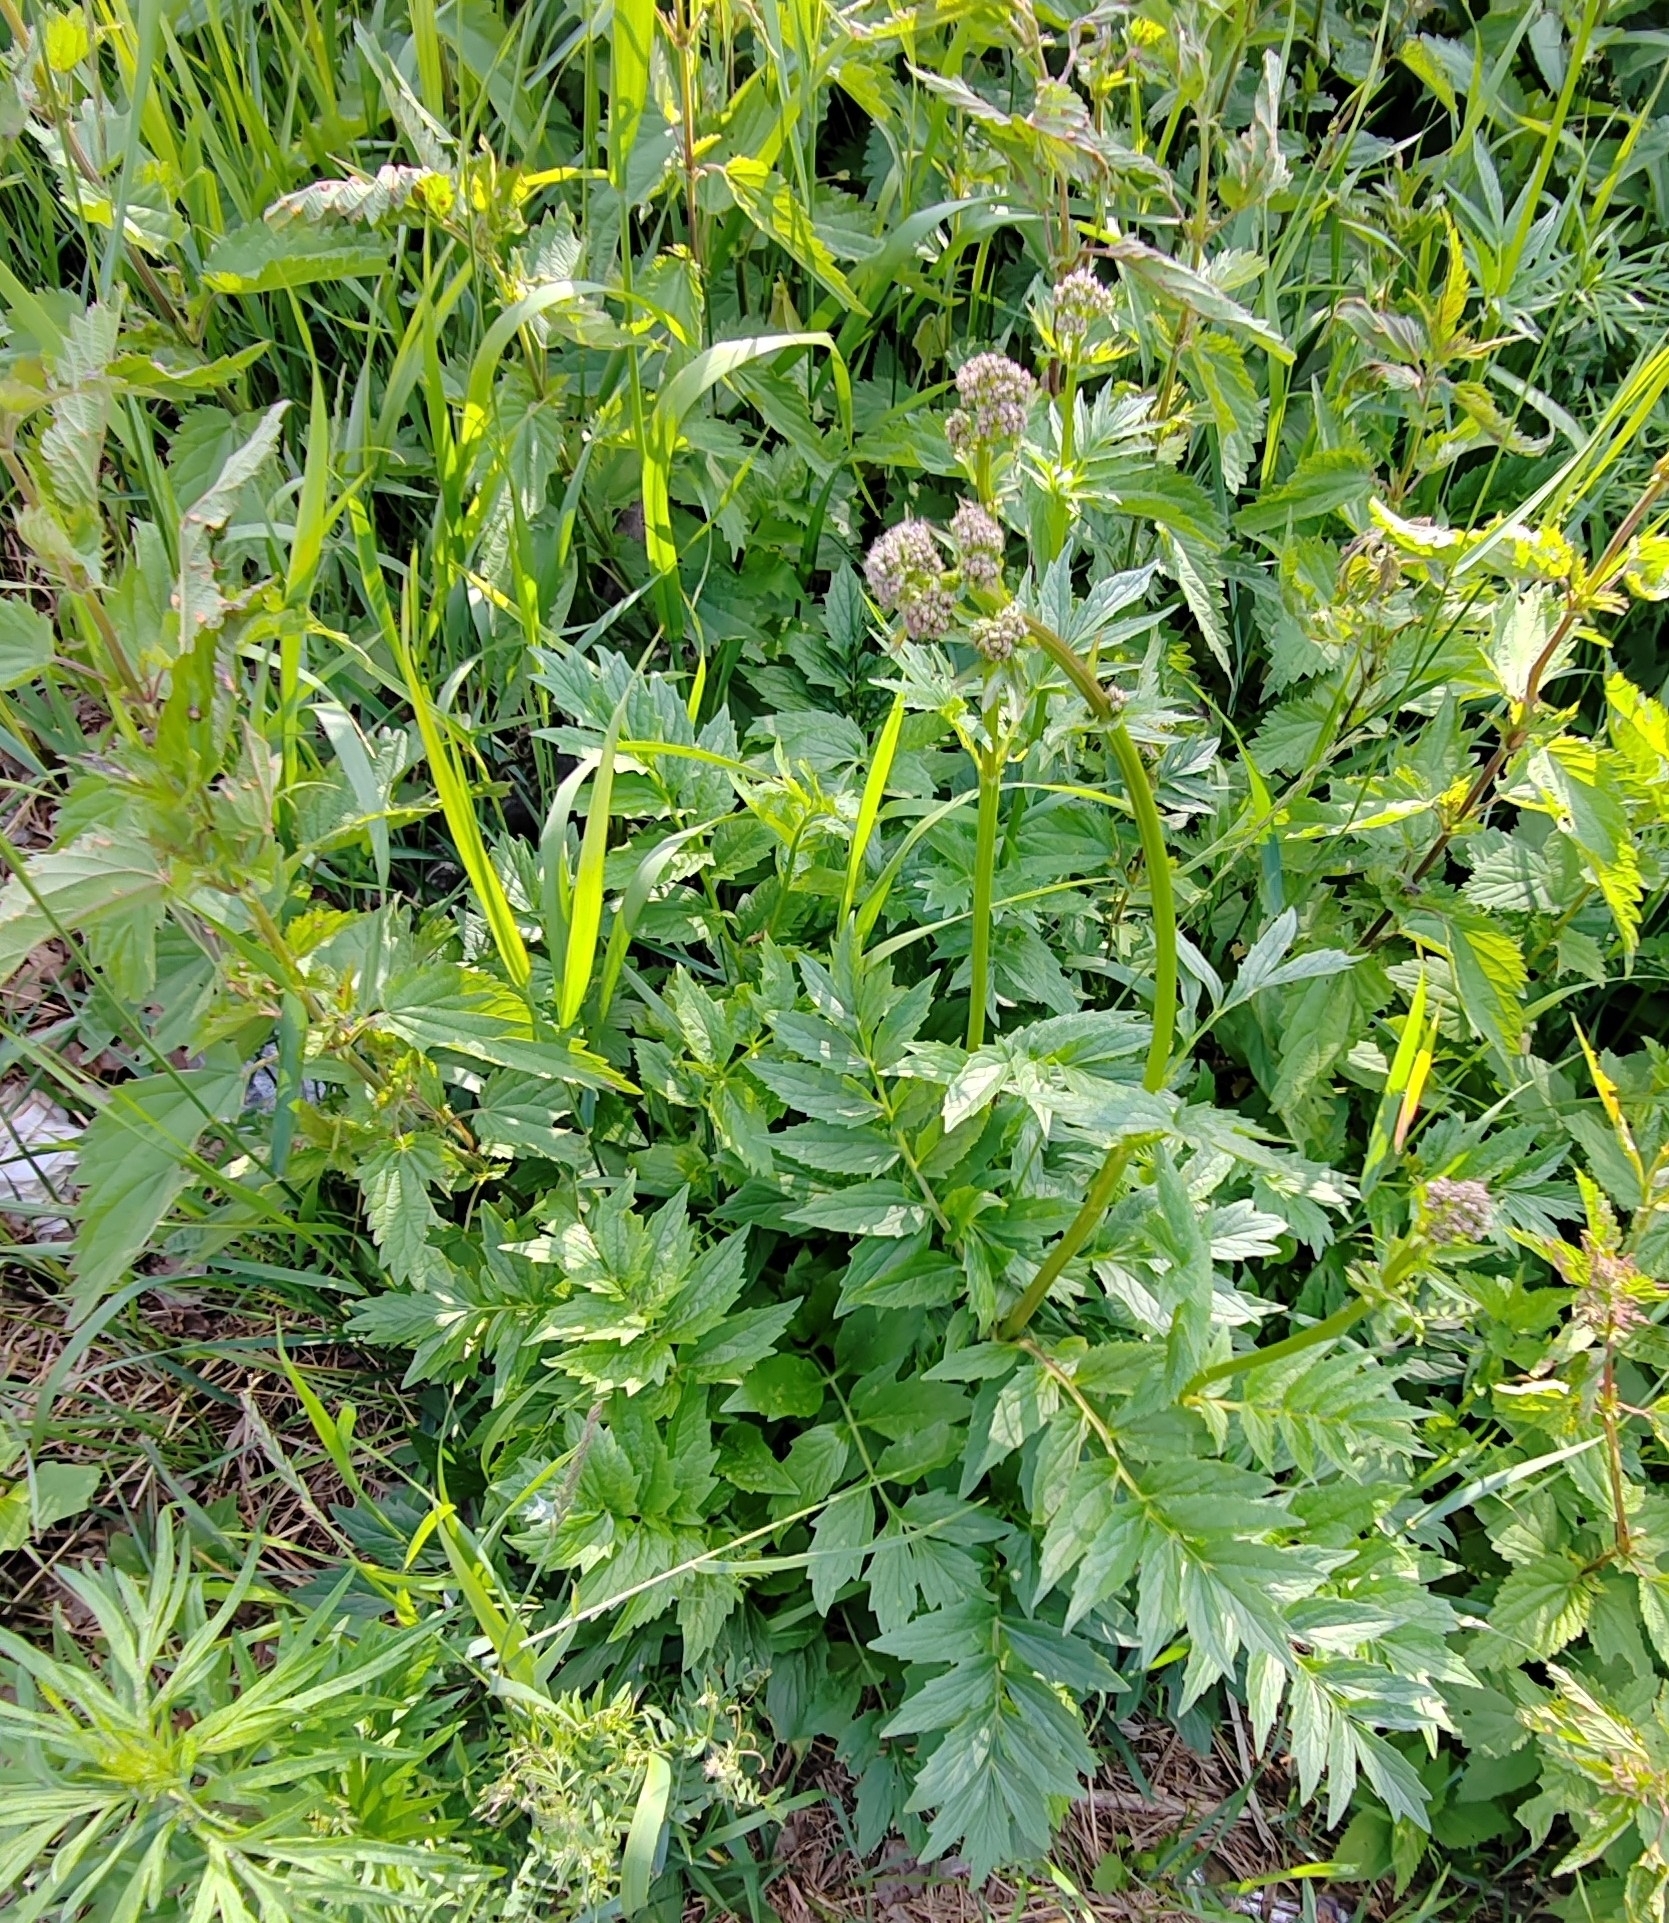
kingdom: Plantae
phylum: Tracheophyta
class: Magnoliopsida
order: Dipsacales
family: Caprifoliaceae
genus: Valeriana
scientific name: Valeriana wolgensis
